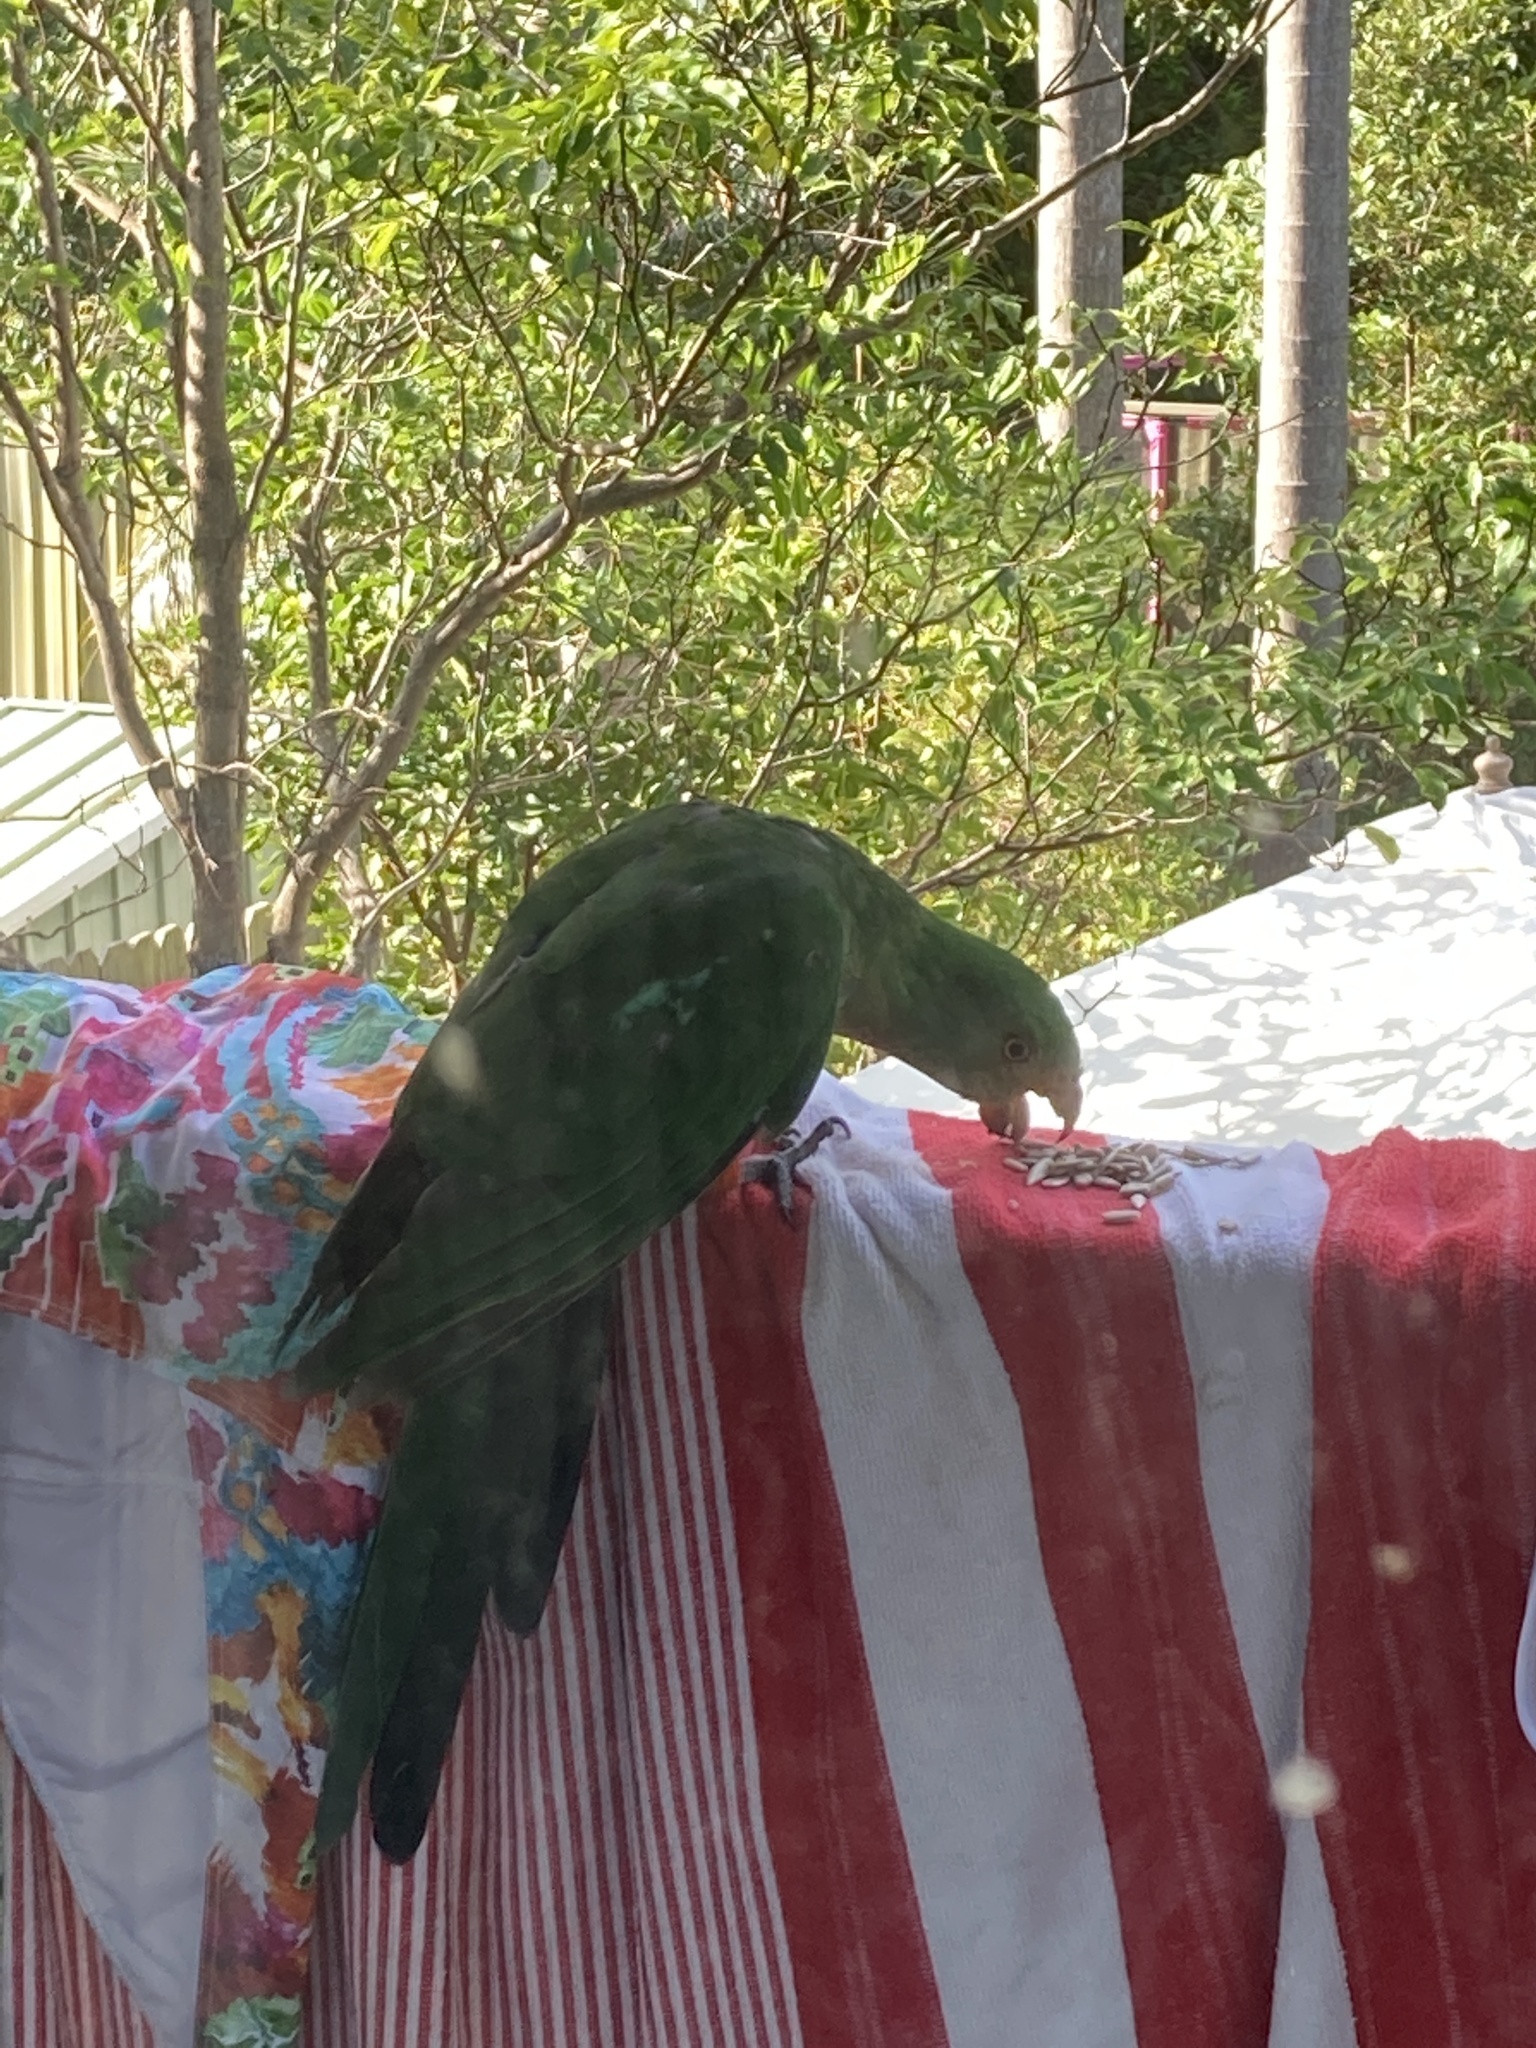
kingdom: Animalia
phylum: Chordata
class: Aves
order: Psittaciformes
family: Psittacidae
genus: Alisterus
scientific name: Alisterus scapularis
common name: Australian king parrot
